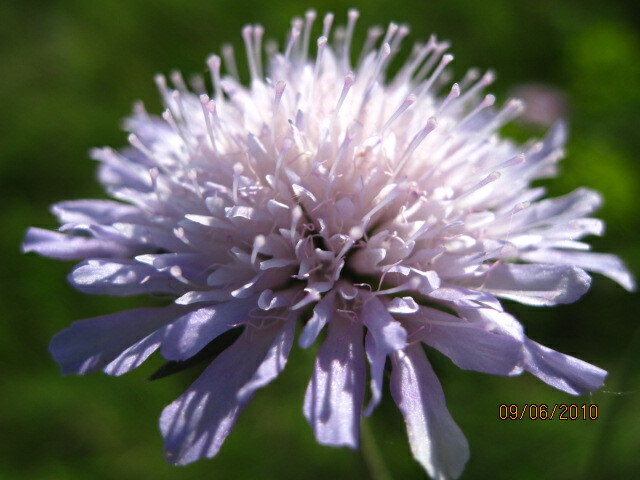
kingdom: Plantae
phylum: Tracheophyta
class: Magnoliopsida
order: Dipsacales
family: Caprifoliaceae
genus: Knautia
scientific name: Knautia arvensis
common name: Field scabiosa
